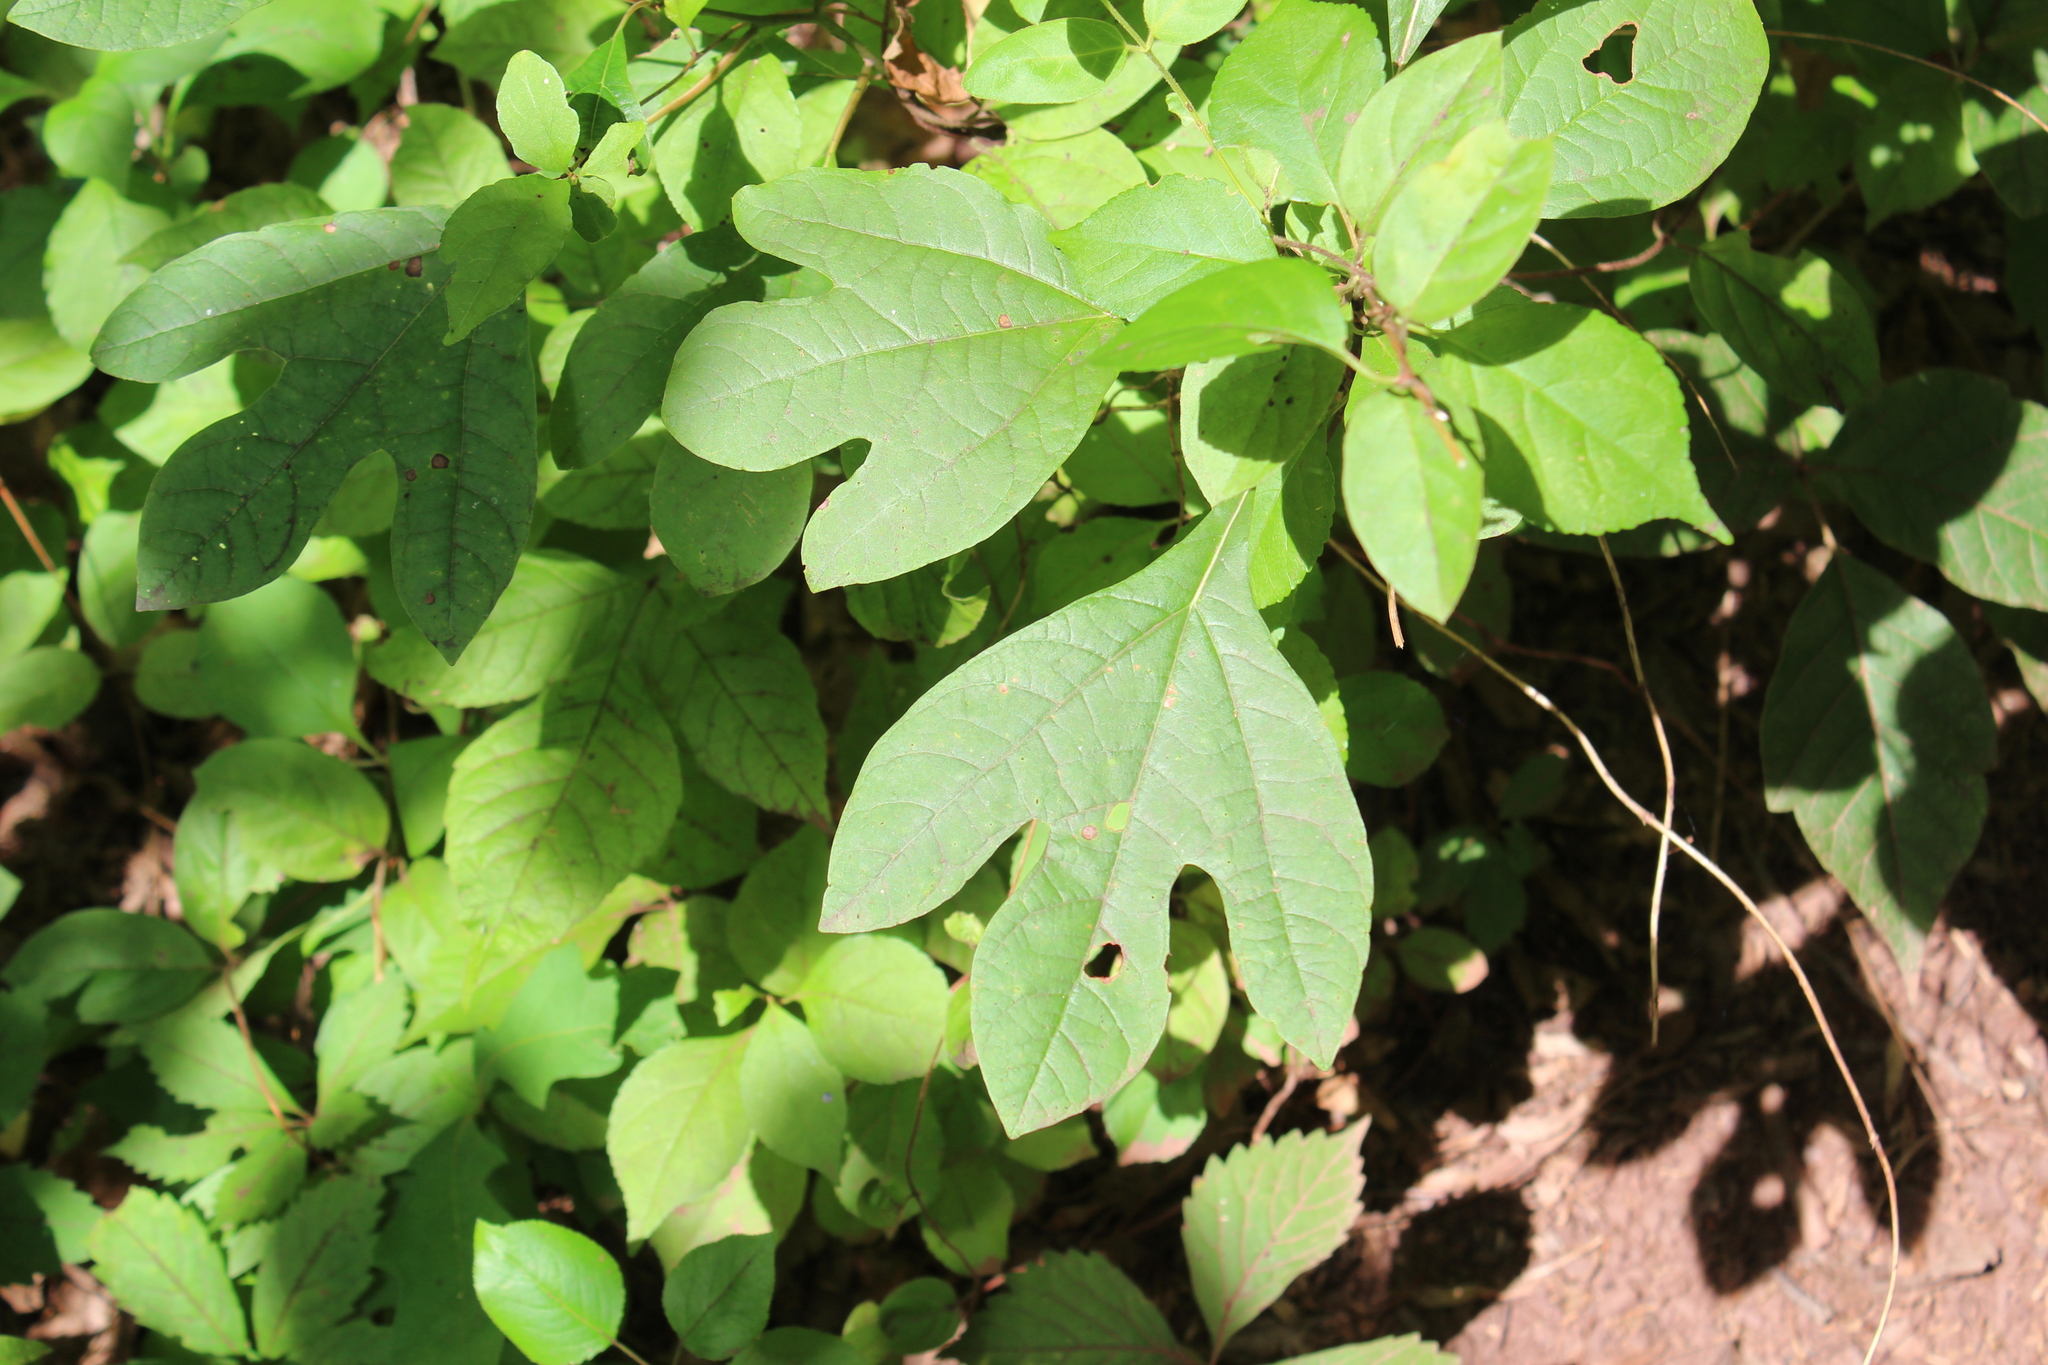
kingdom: Plantae
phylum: Tracheophyta
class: Magnoliopsida
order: Laurales
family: Lauraceae
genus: Sassafras
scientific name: Sassafras albidum
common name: Sassafras
